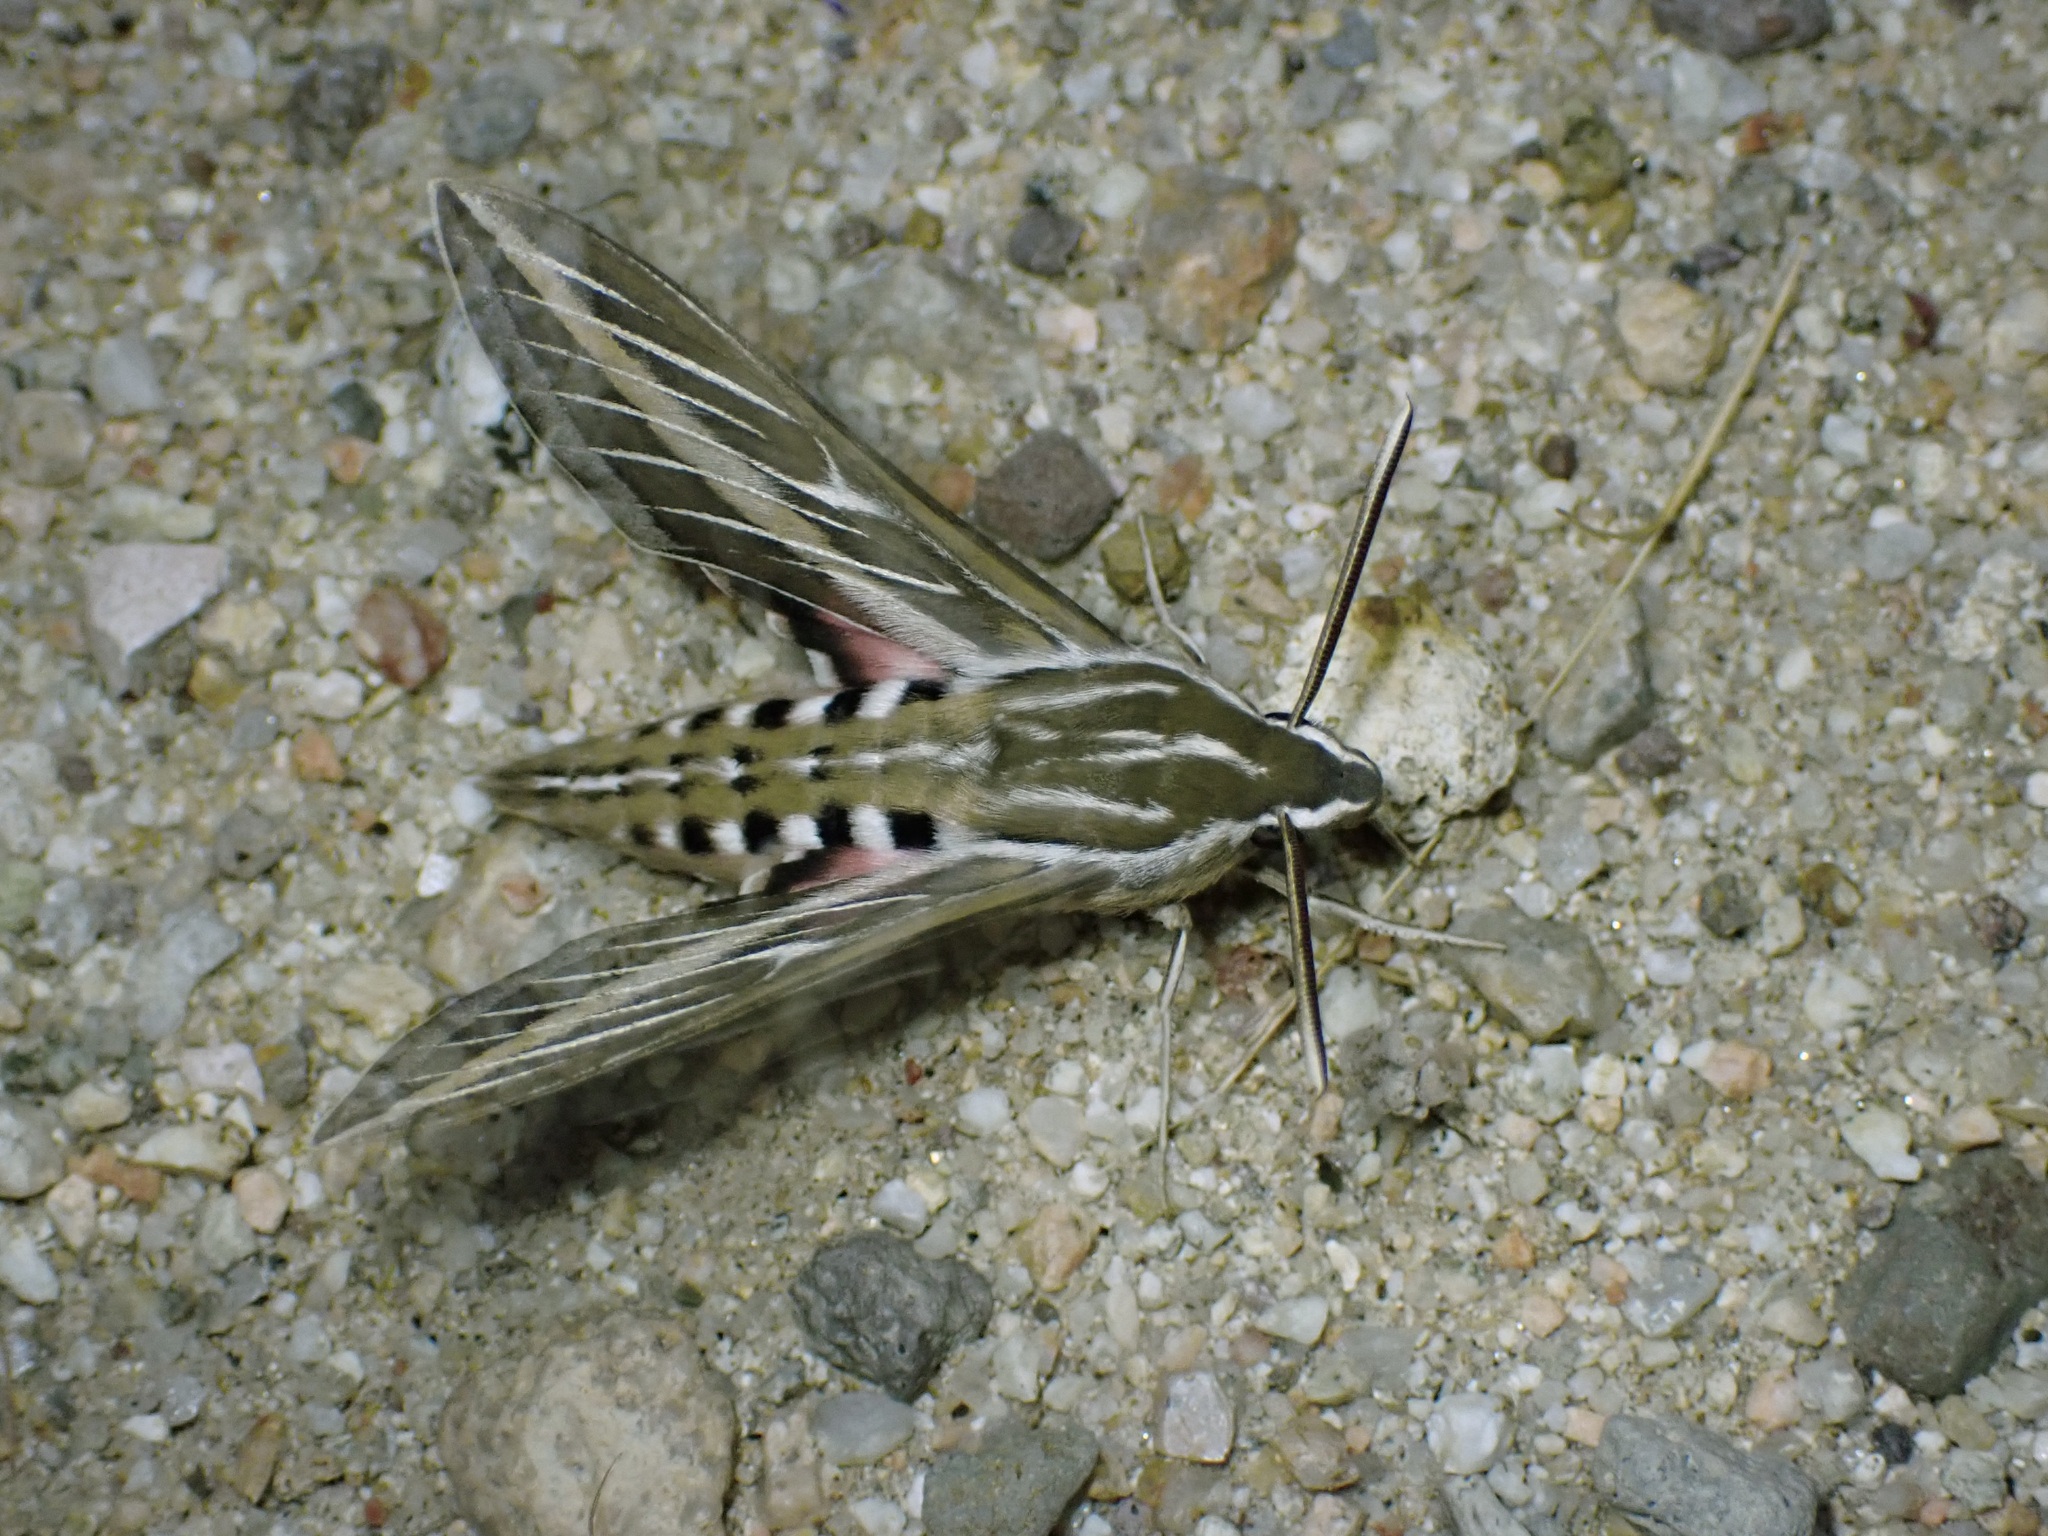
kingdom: Animalia
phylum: Arthropoda
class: Insecta
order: Lepidoptera
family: Sphingidae
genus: Hyles
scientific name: Hyles lineata
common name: White-lined sphinx
